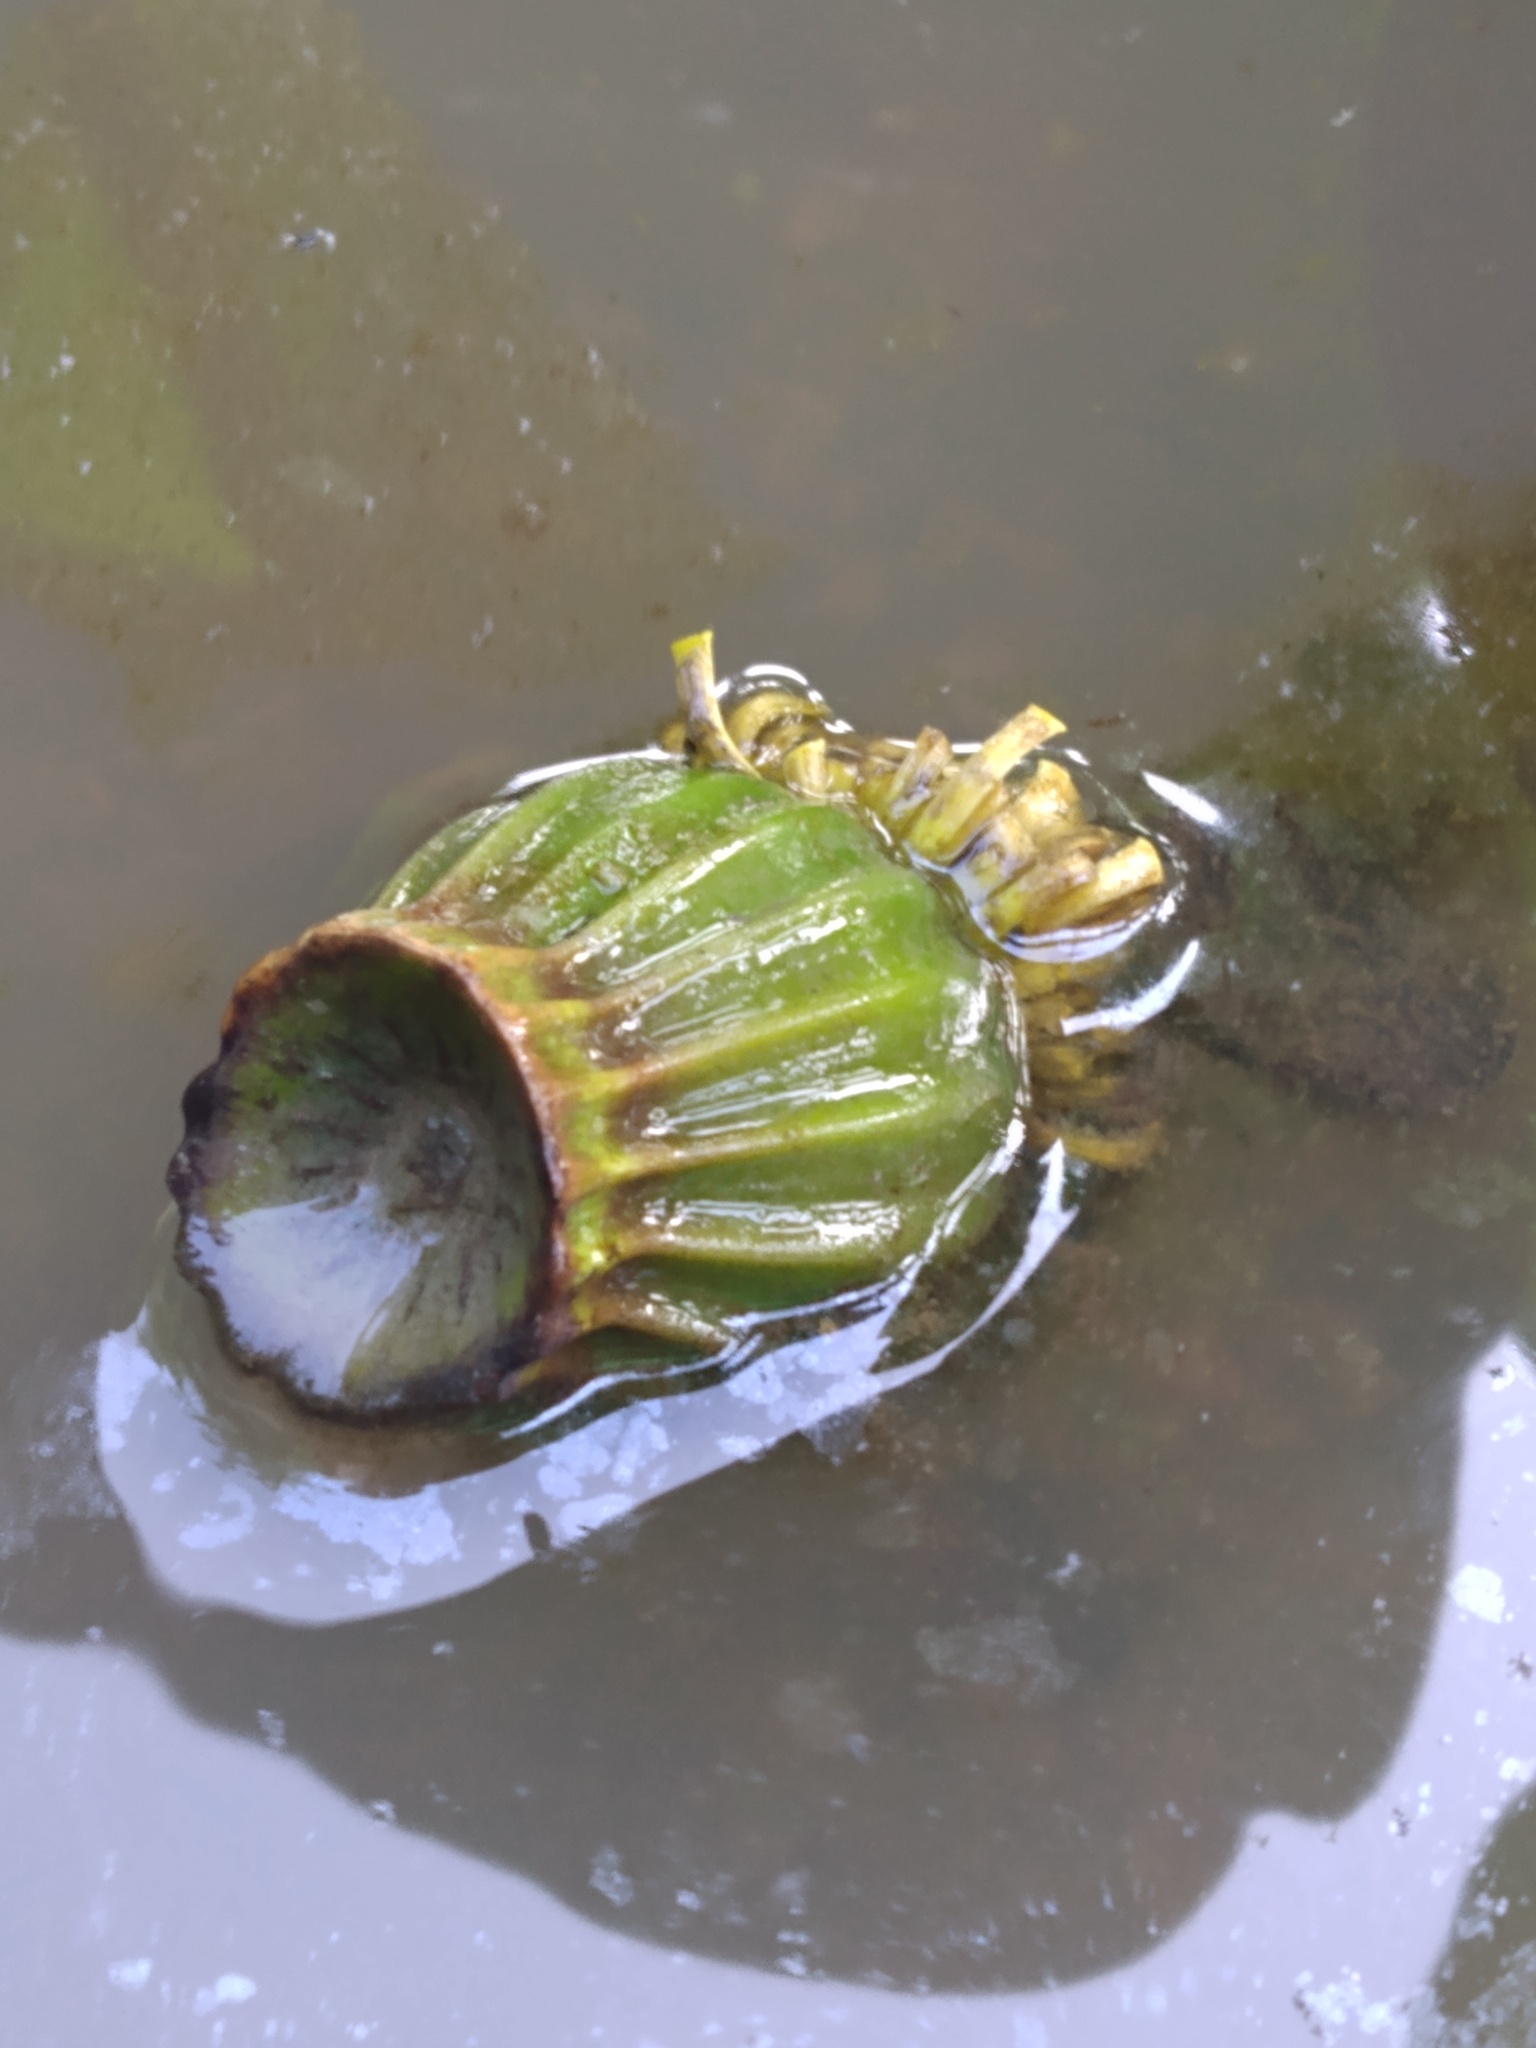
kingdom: Plantae
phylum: Tracheophyta
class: Magnoliopsida
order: Nymphaeales
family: Nymphaeaceae
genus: Nuphar
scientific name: Nuphar advena
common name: Spatter-dock
